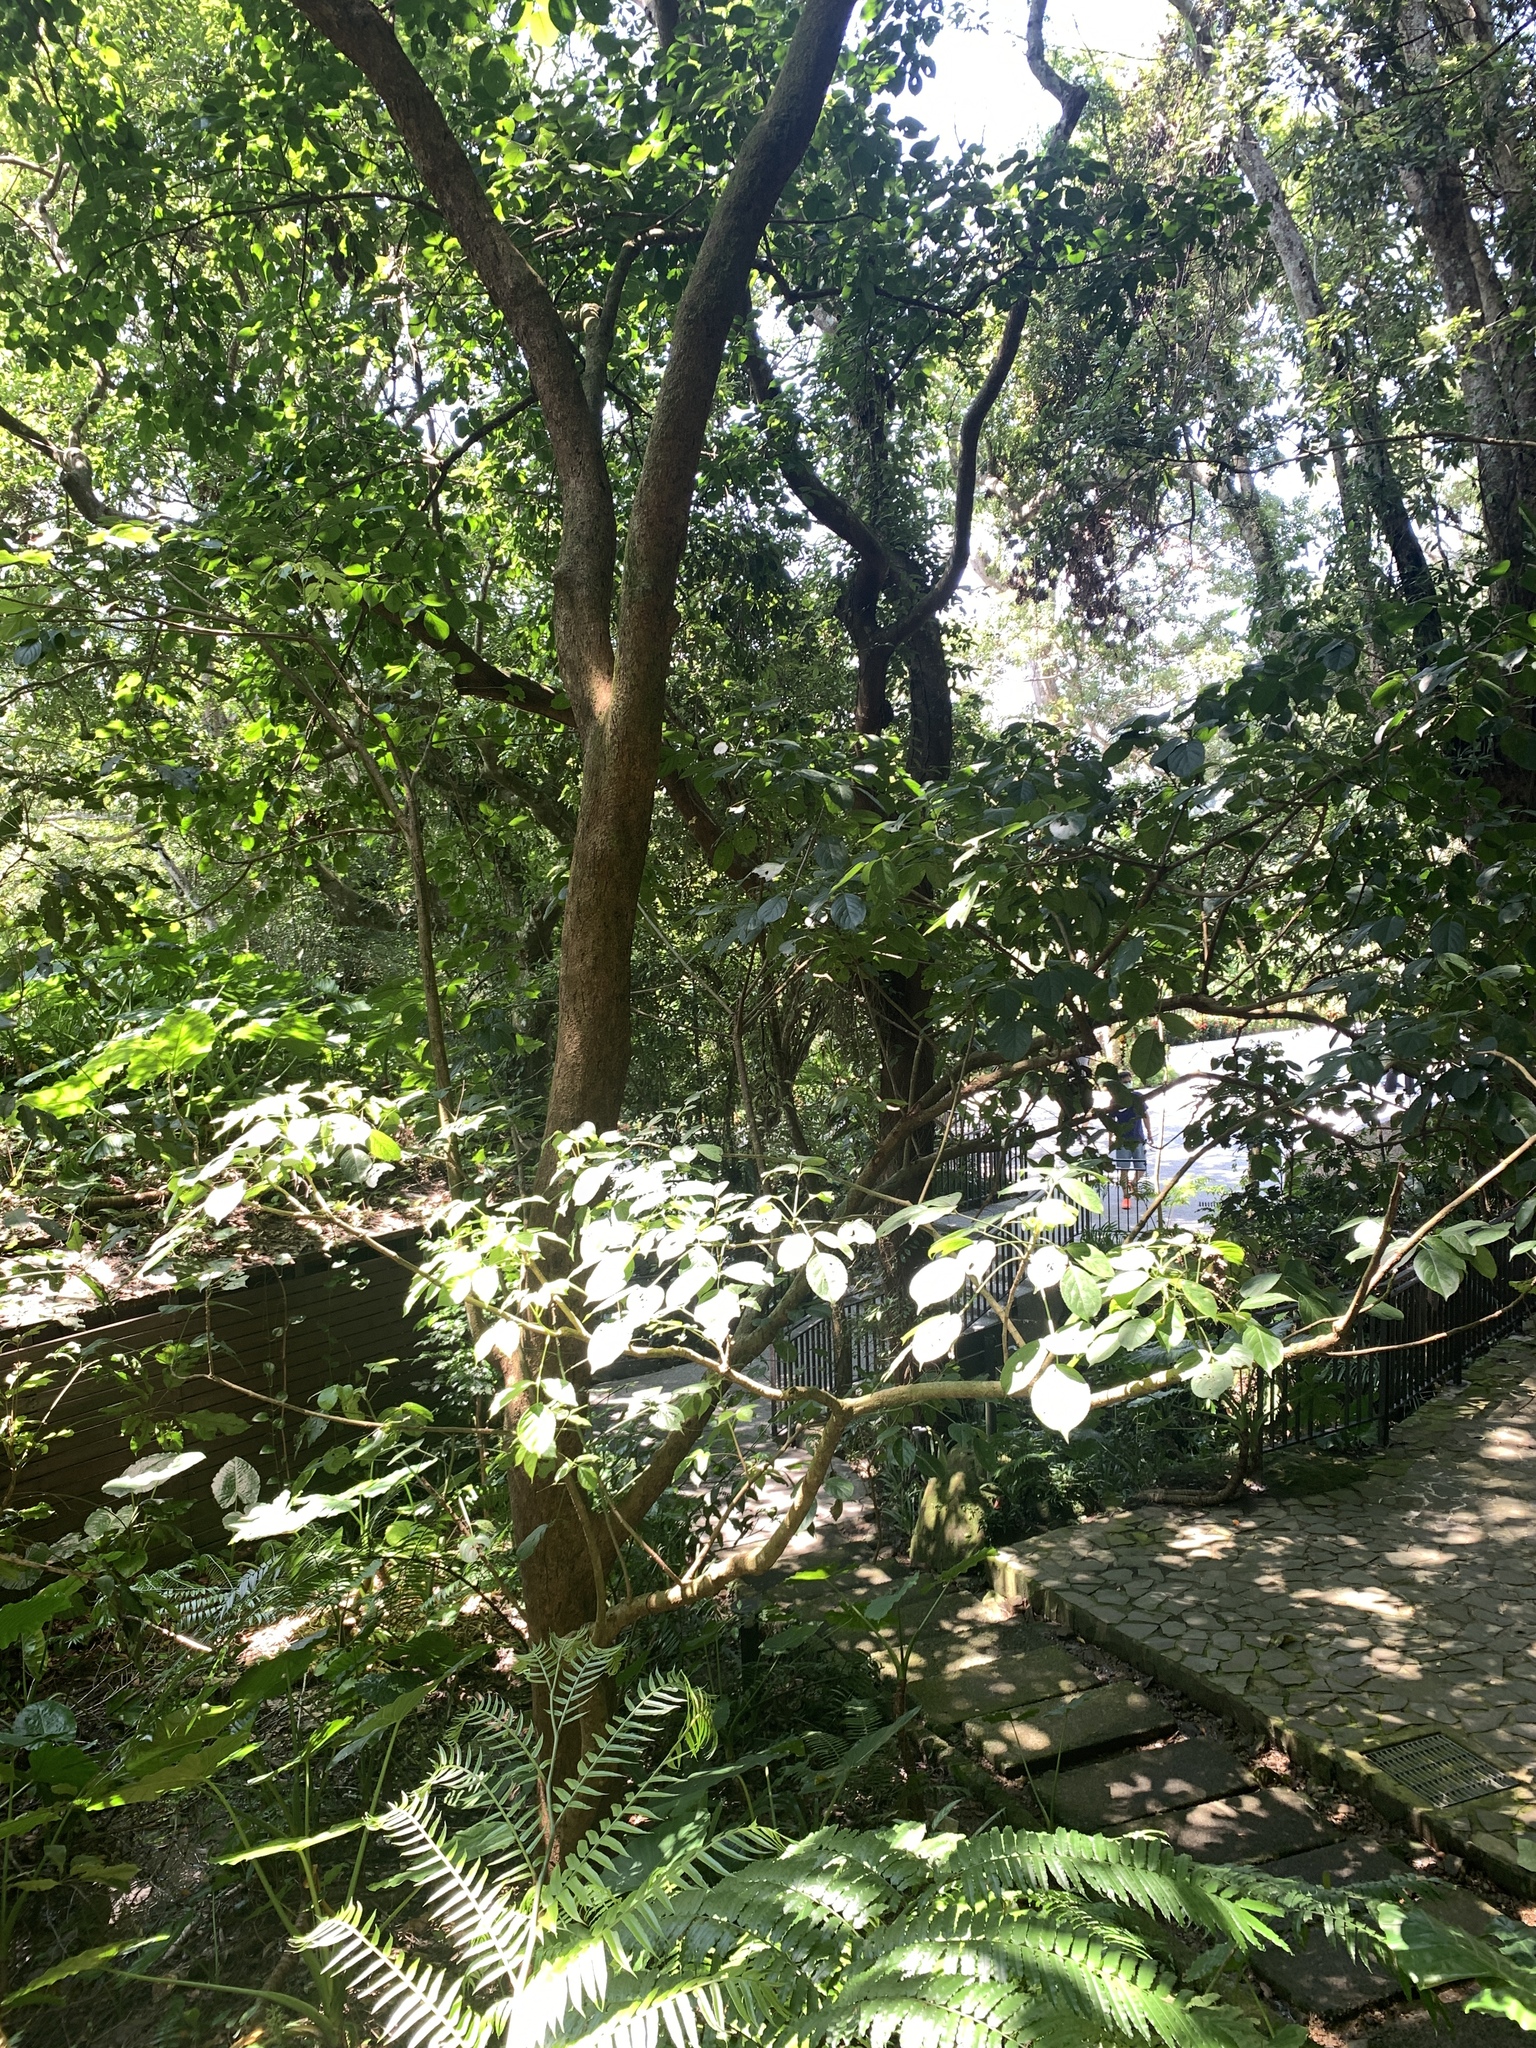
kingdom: Plantae
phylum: Tracheophyta
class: Magnoliopsida
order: Malpighiales
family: Phyllanthaceae
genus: Bischofia
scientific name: Bischofia javanica
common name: Javanese bishopwood
